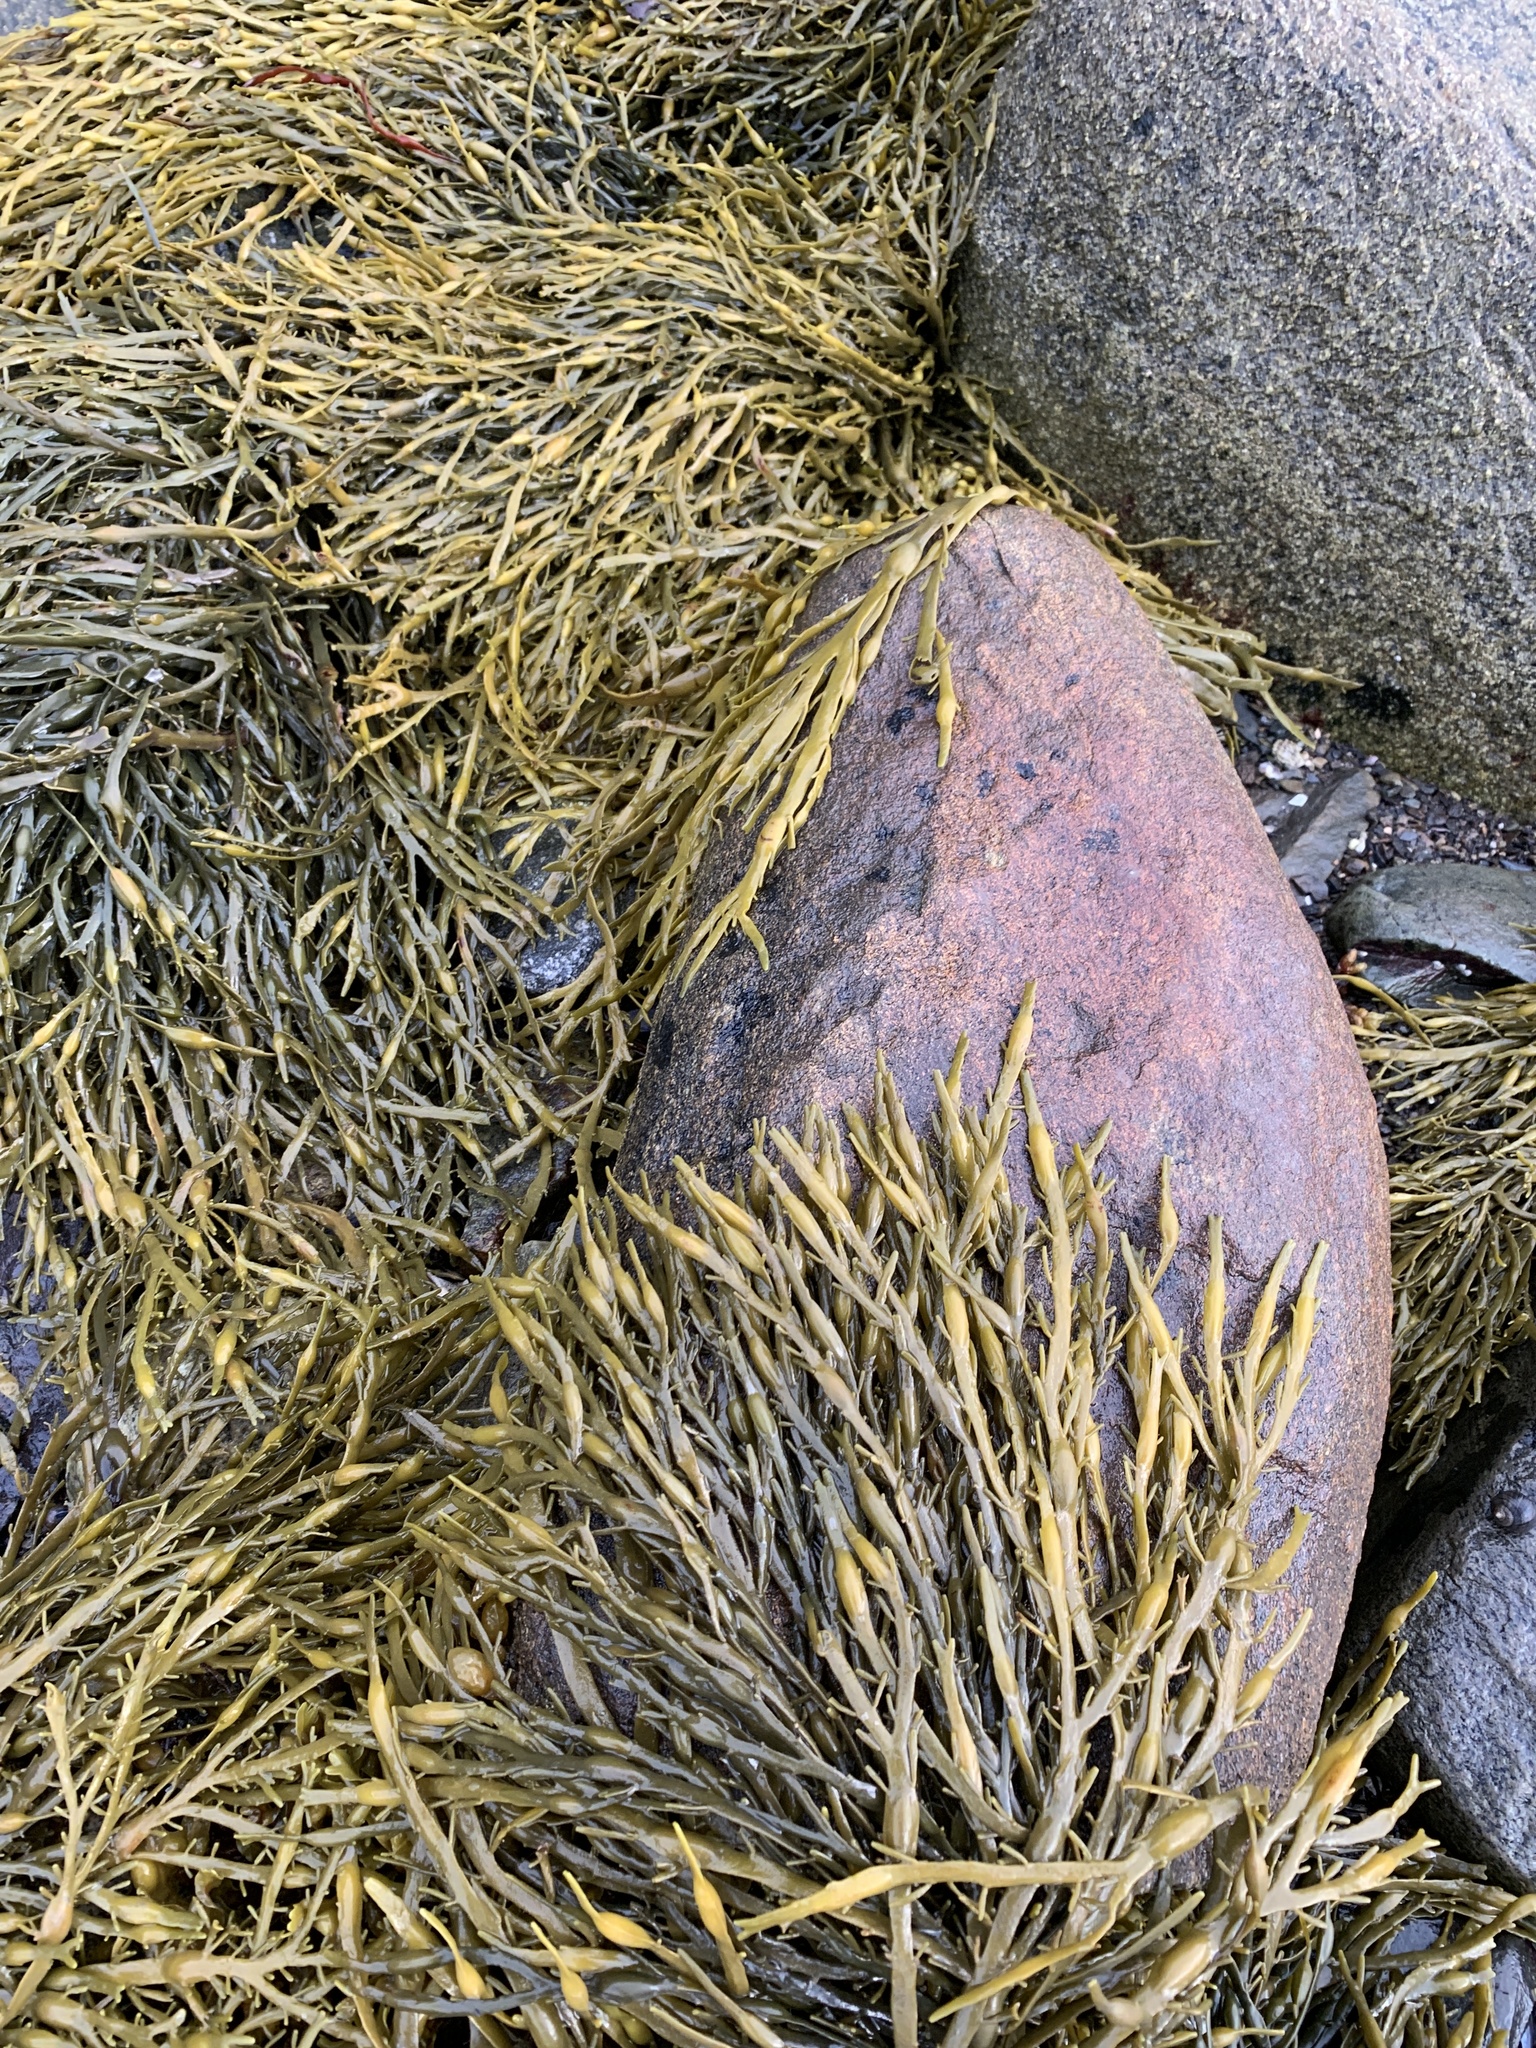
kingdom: Chromista
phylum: Ochrophyta
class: Phaeophyceae
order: Fucales
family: Fucaceae
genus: Ascophyllum
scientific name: Ascophyllum nodosum
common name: Knotted wrack
